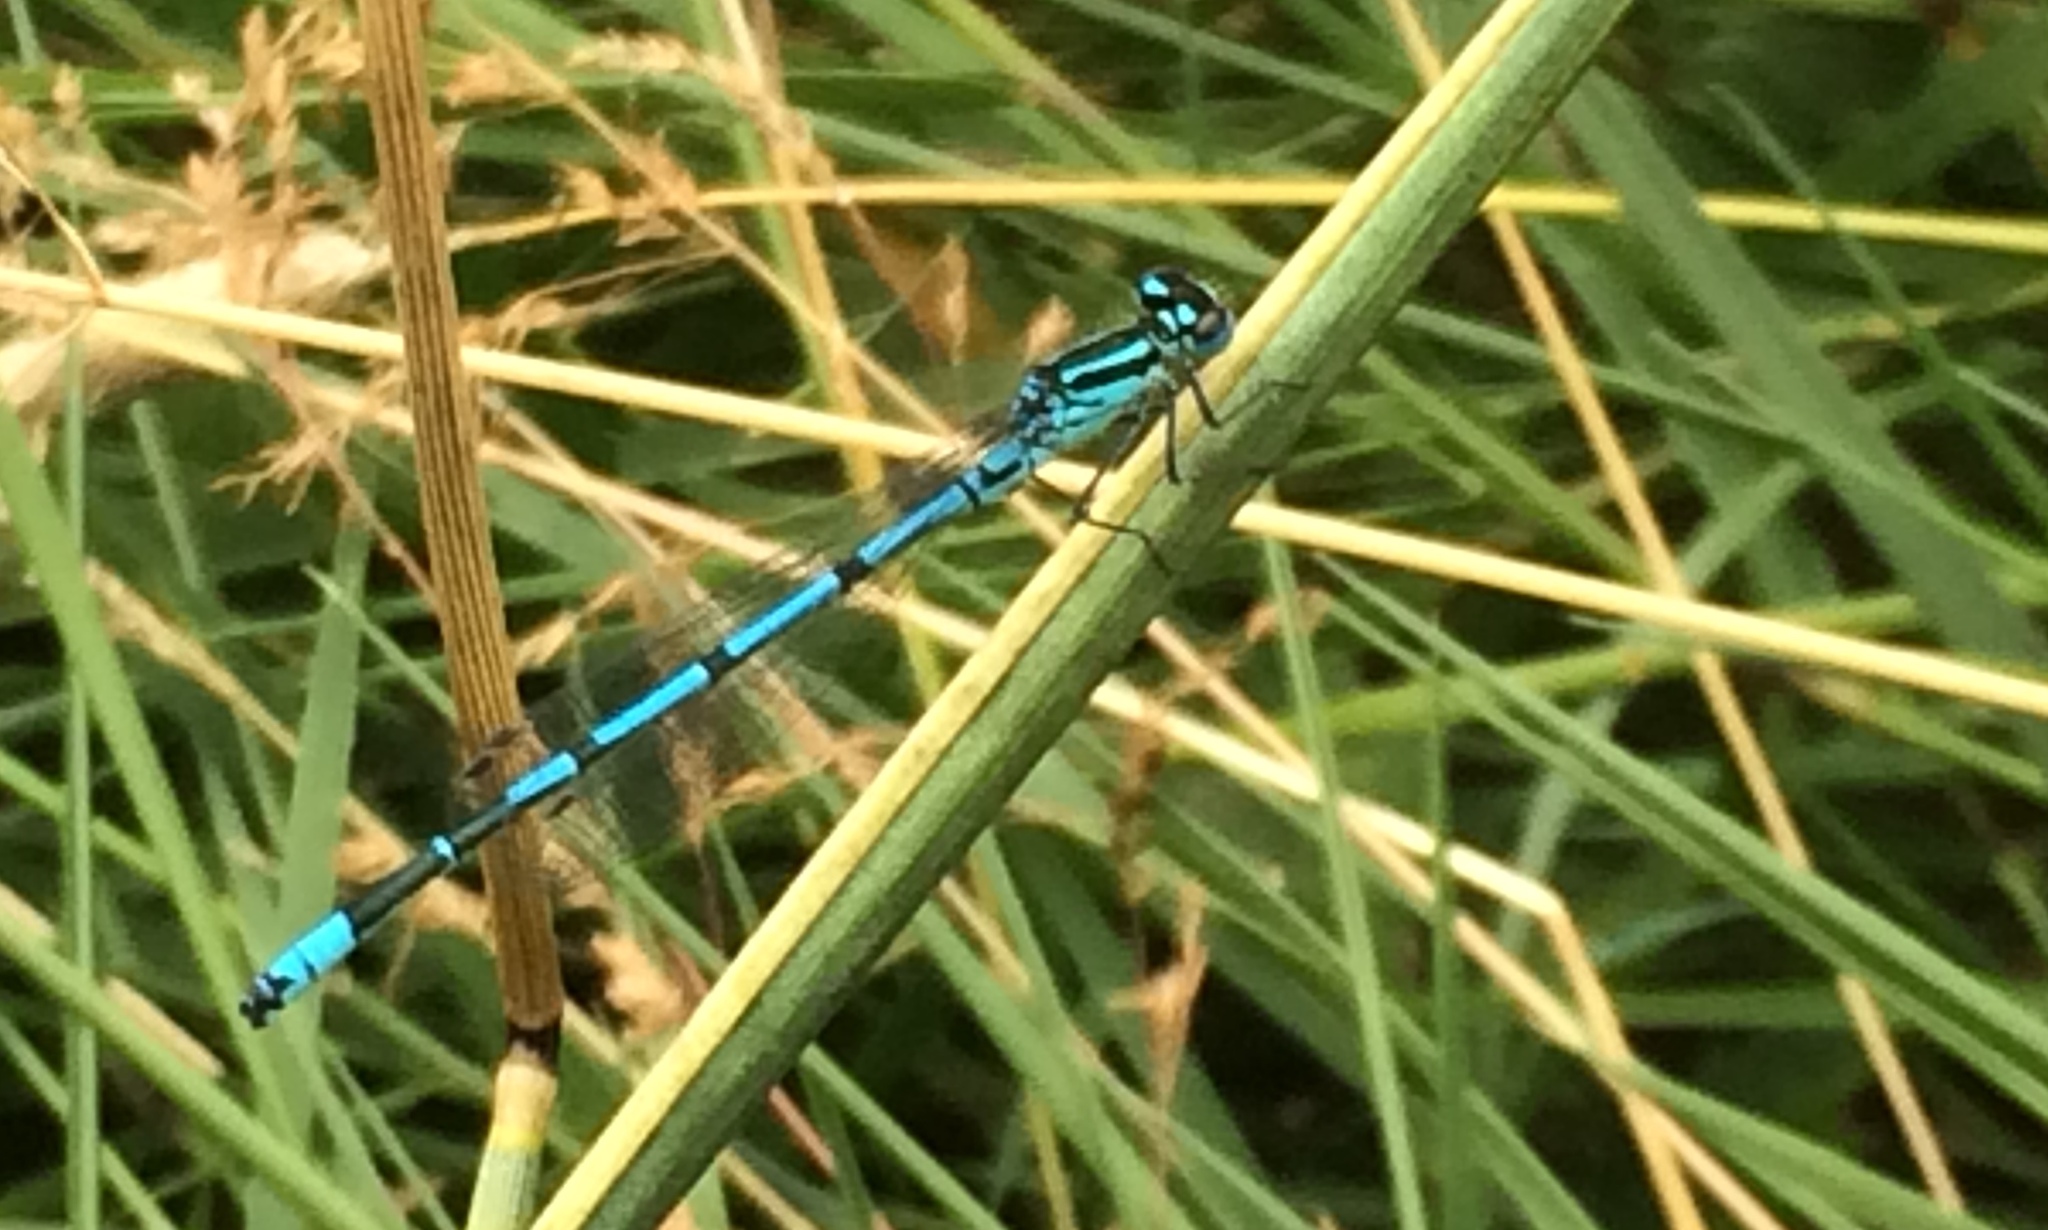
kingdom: Animalia
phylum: Arthropoda
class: Insecta
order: Odonata
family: Coenagrionidae
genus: Enallagma
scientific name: Enallagma cyathigerum
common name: Common blue damselfly
